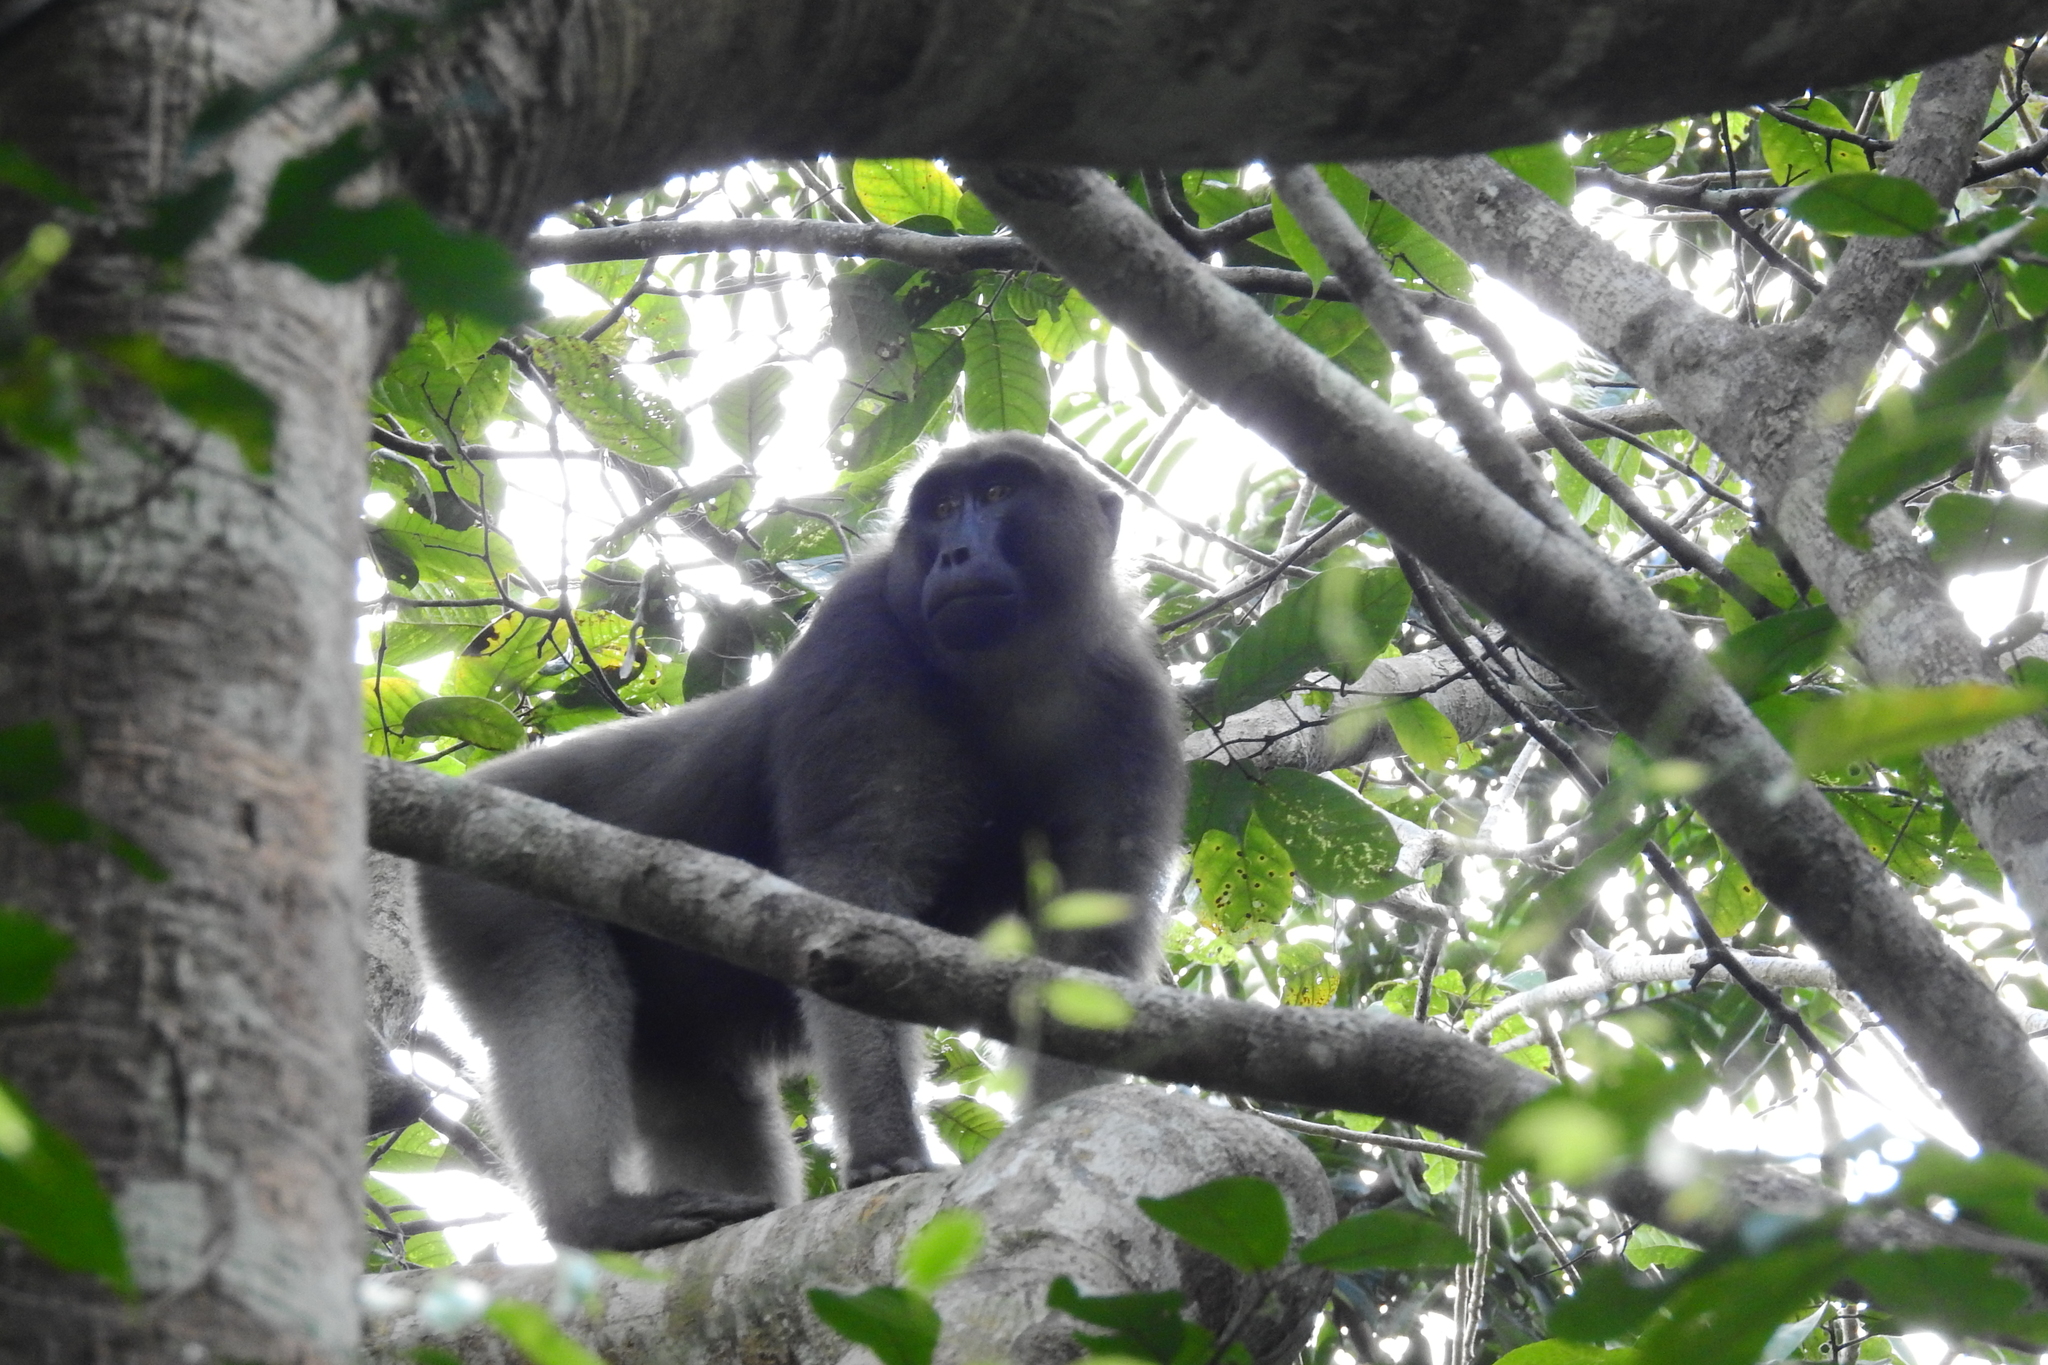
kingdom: Animalia
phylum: Chordata
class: Mammalia
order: Primates
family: Cercopithecidae
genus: Macaca
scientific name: Macaca ochreata
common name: Booted macaque
